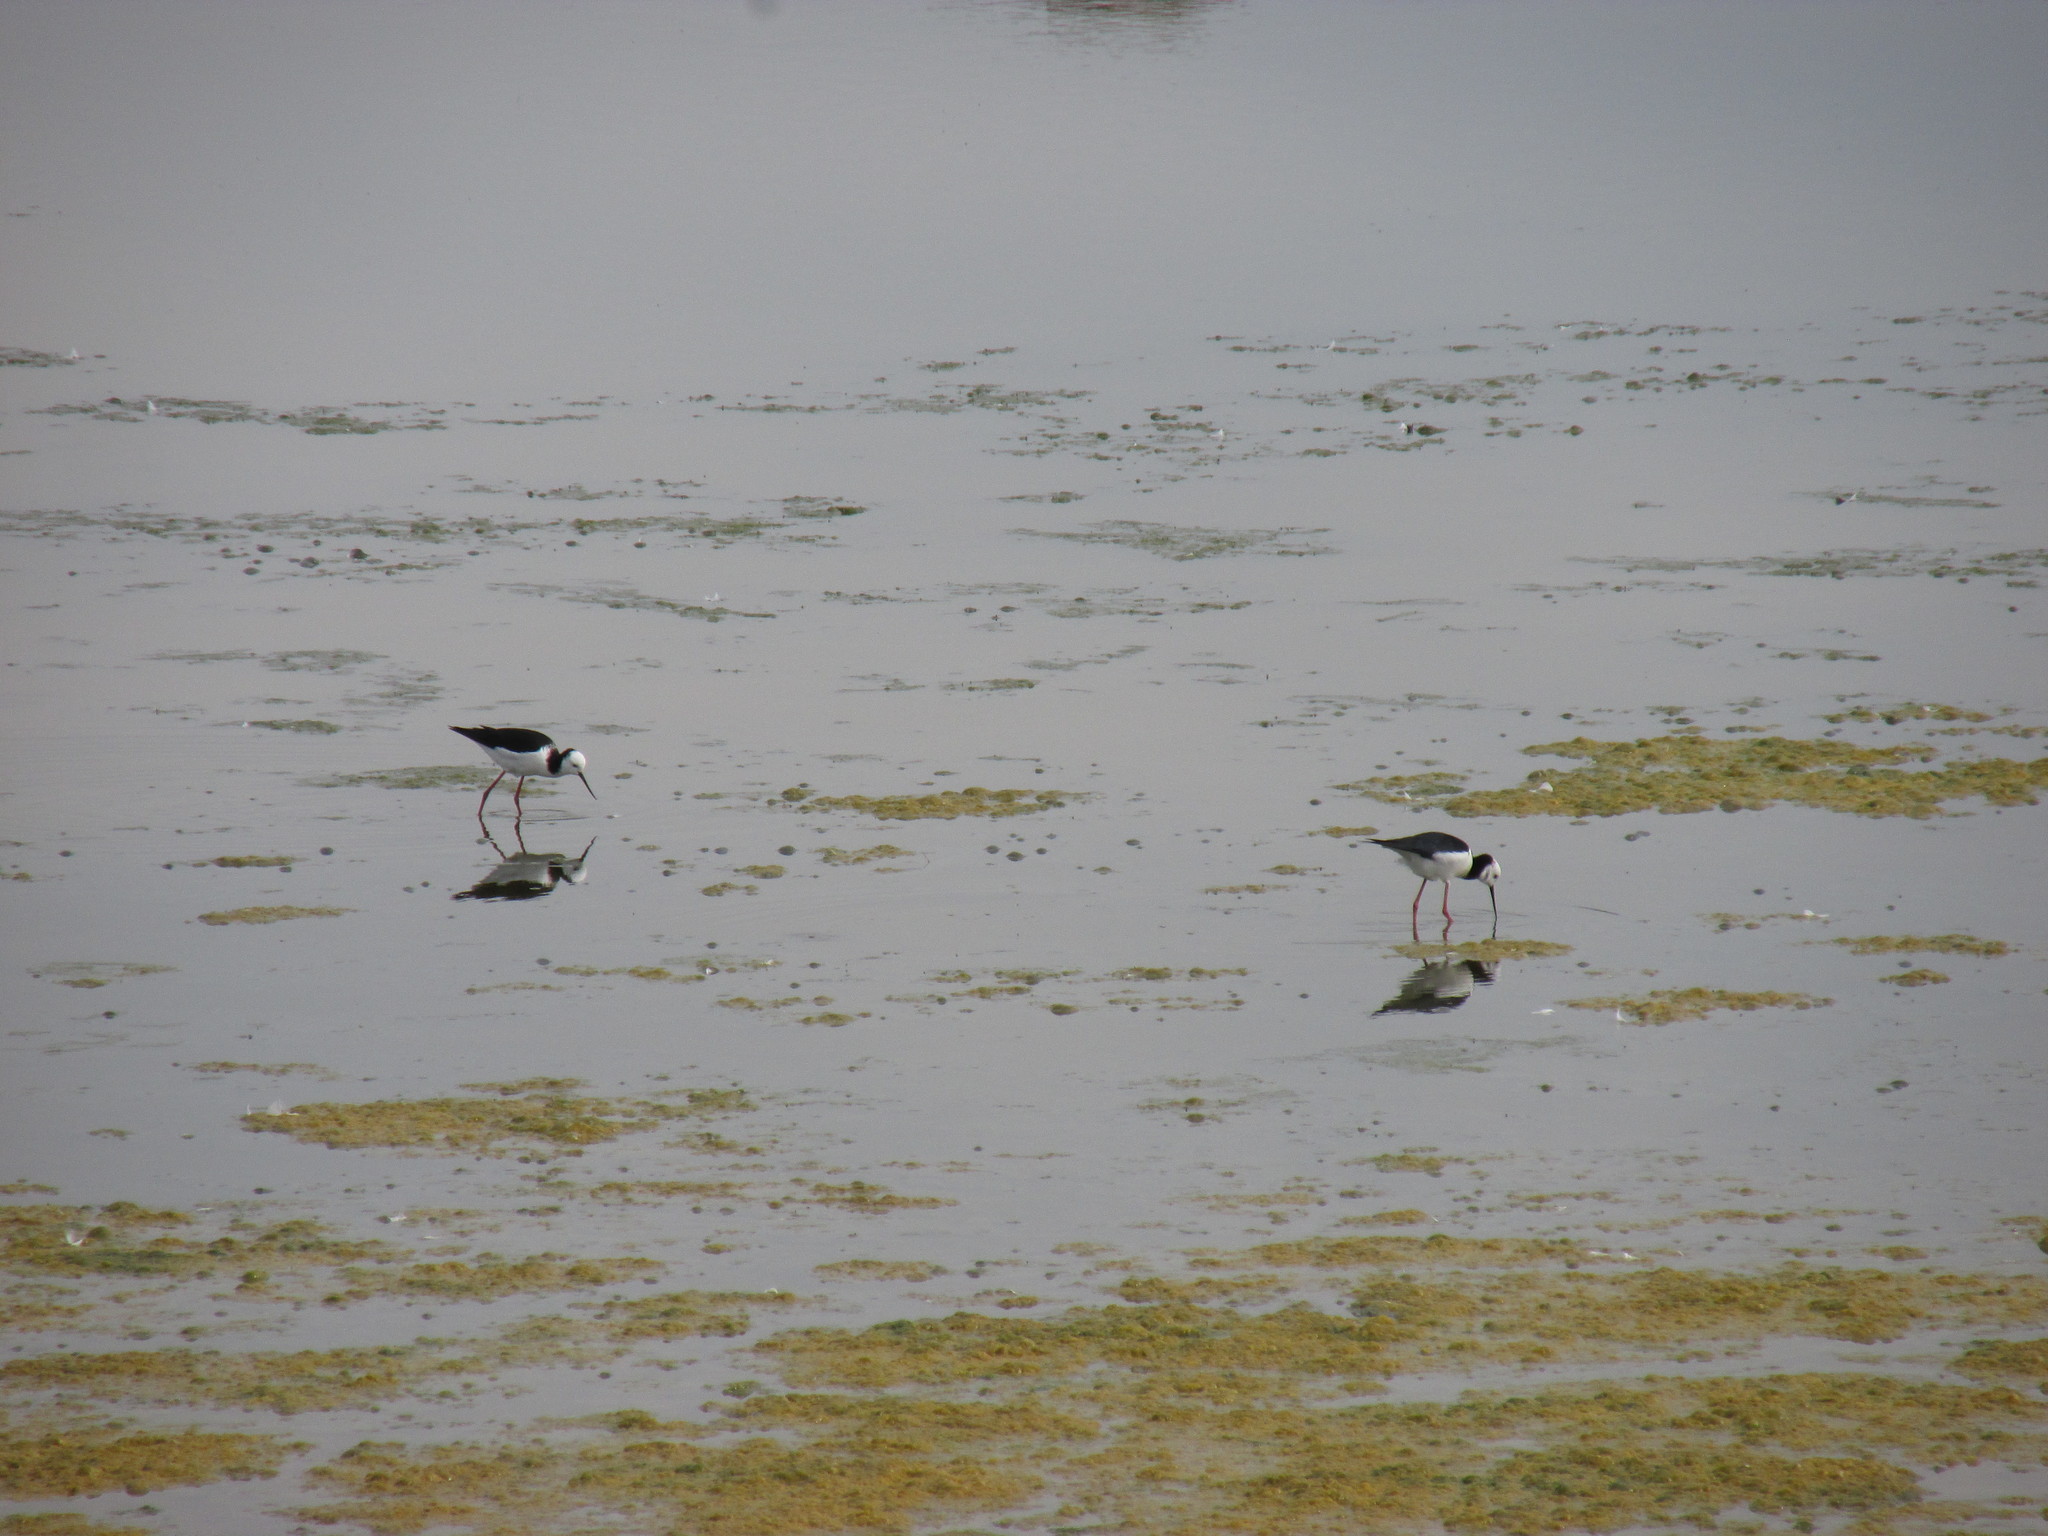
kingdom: Animalia
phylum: Chordata
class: Aves
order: Charadriiformes
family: Recurvirostridae
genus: Himantopus
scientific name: Himantopus leucocephalus
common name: White-headed stilt
